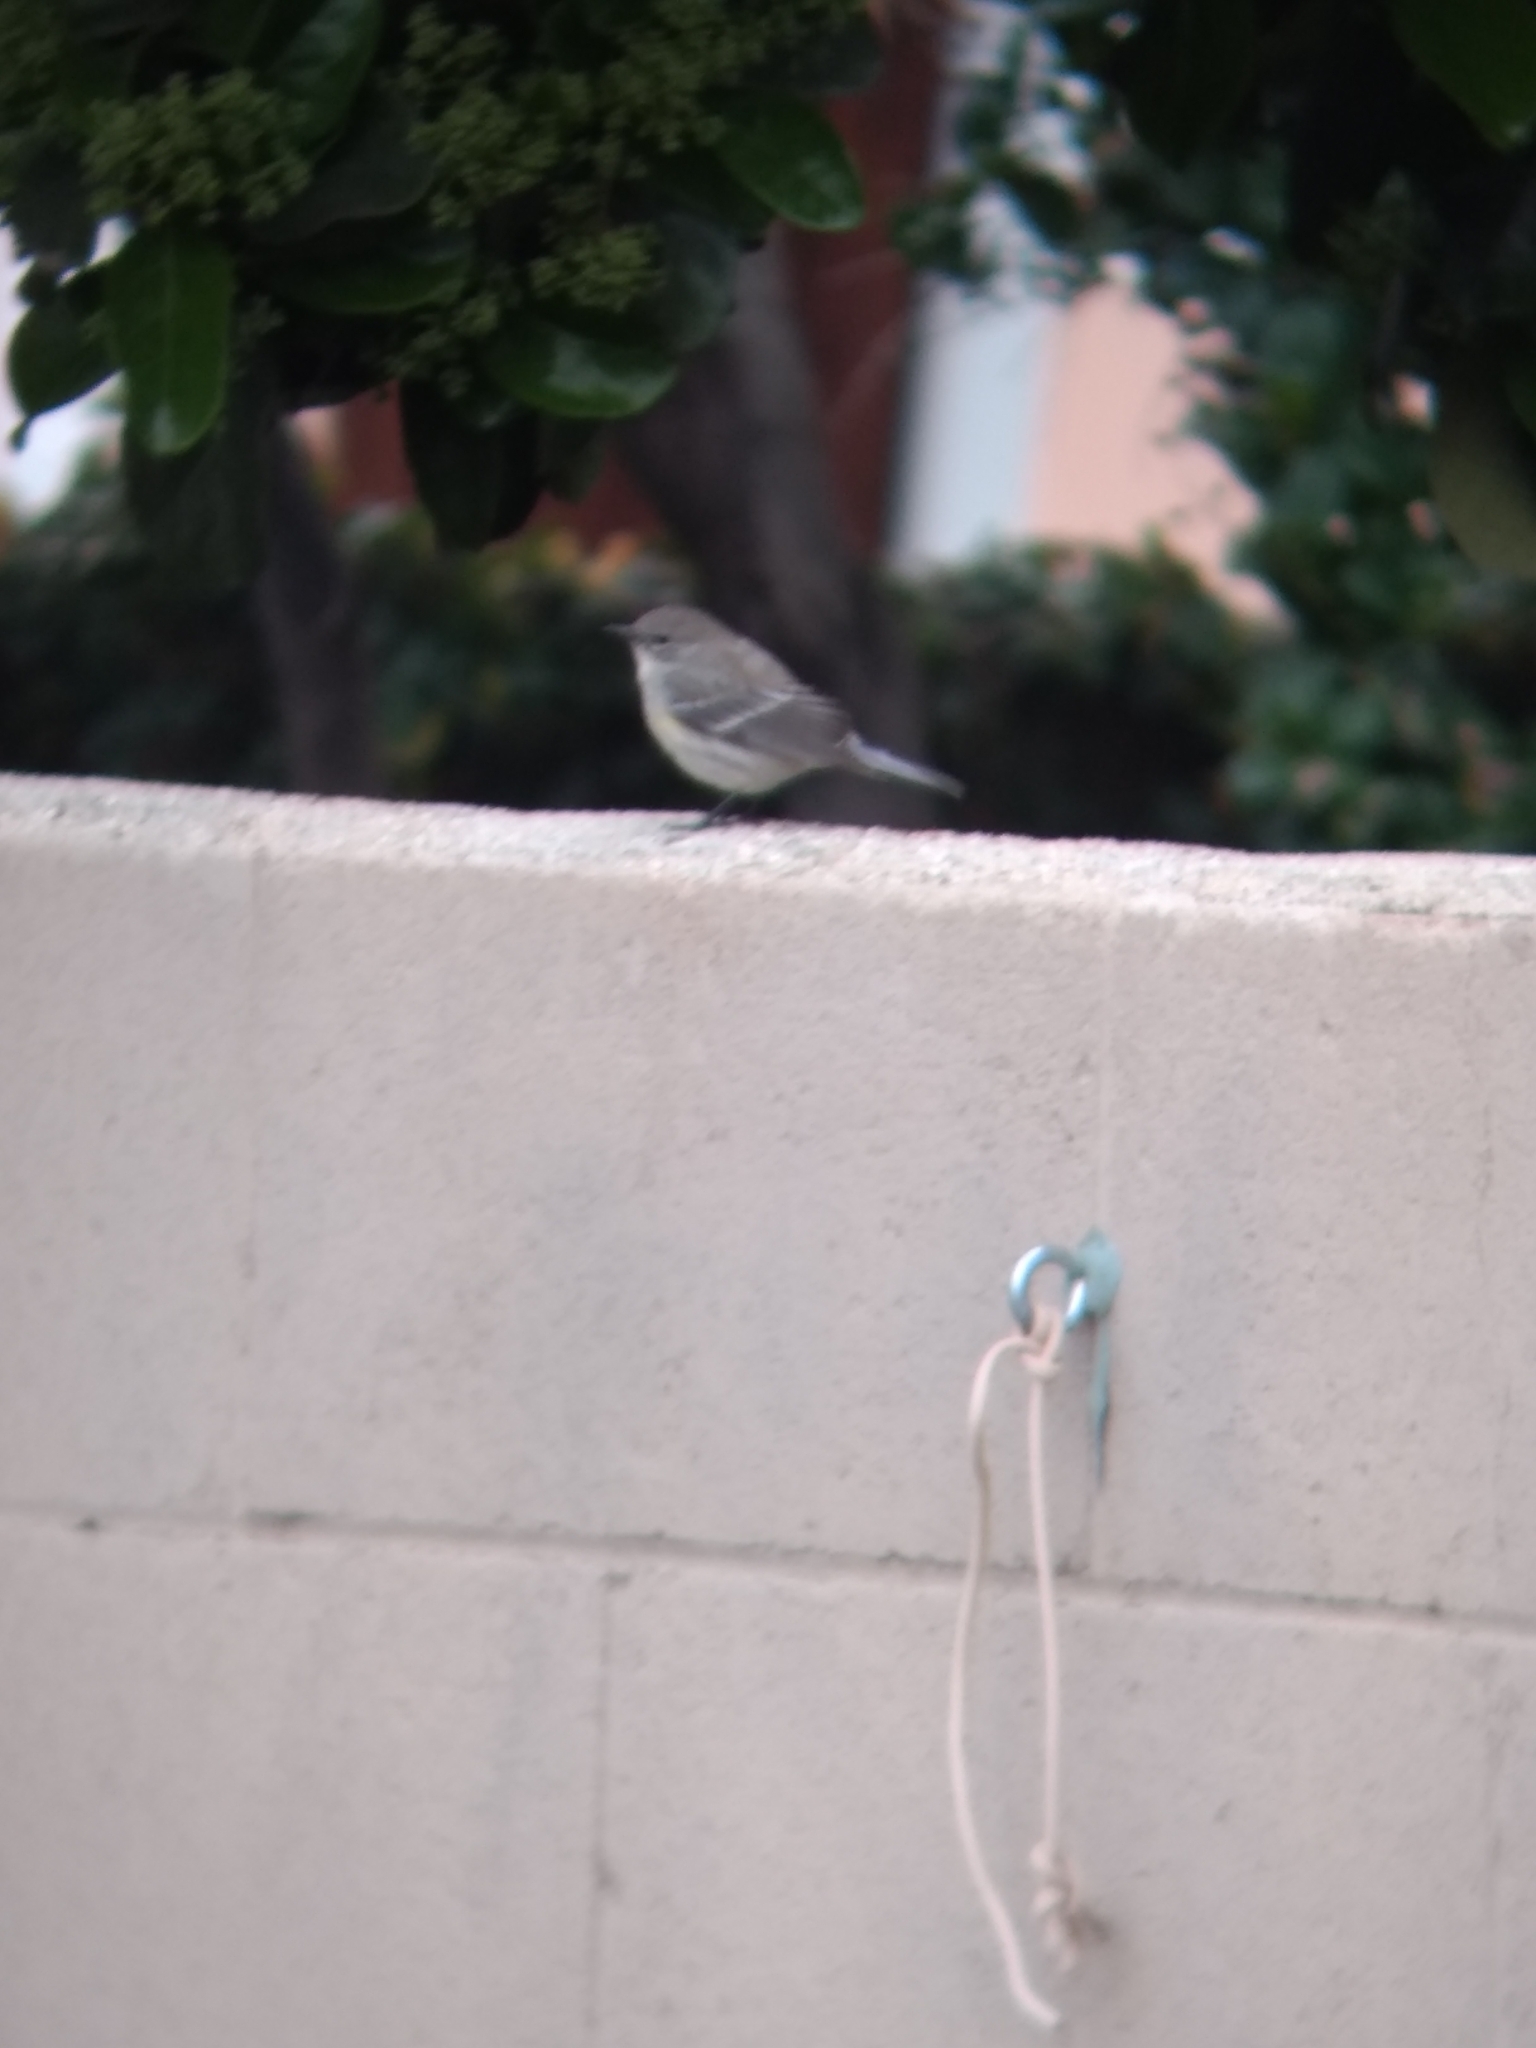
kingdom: Animalia
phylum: Chordata
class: Aves
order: Passeriformes
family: Parulidae
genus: Setophaga
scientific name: Setophaga coronata
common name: Myrtle warbler
